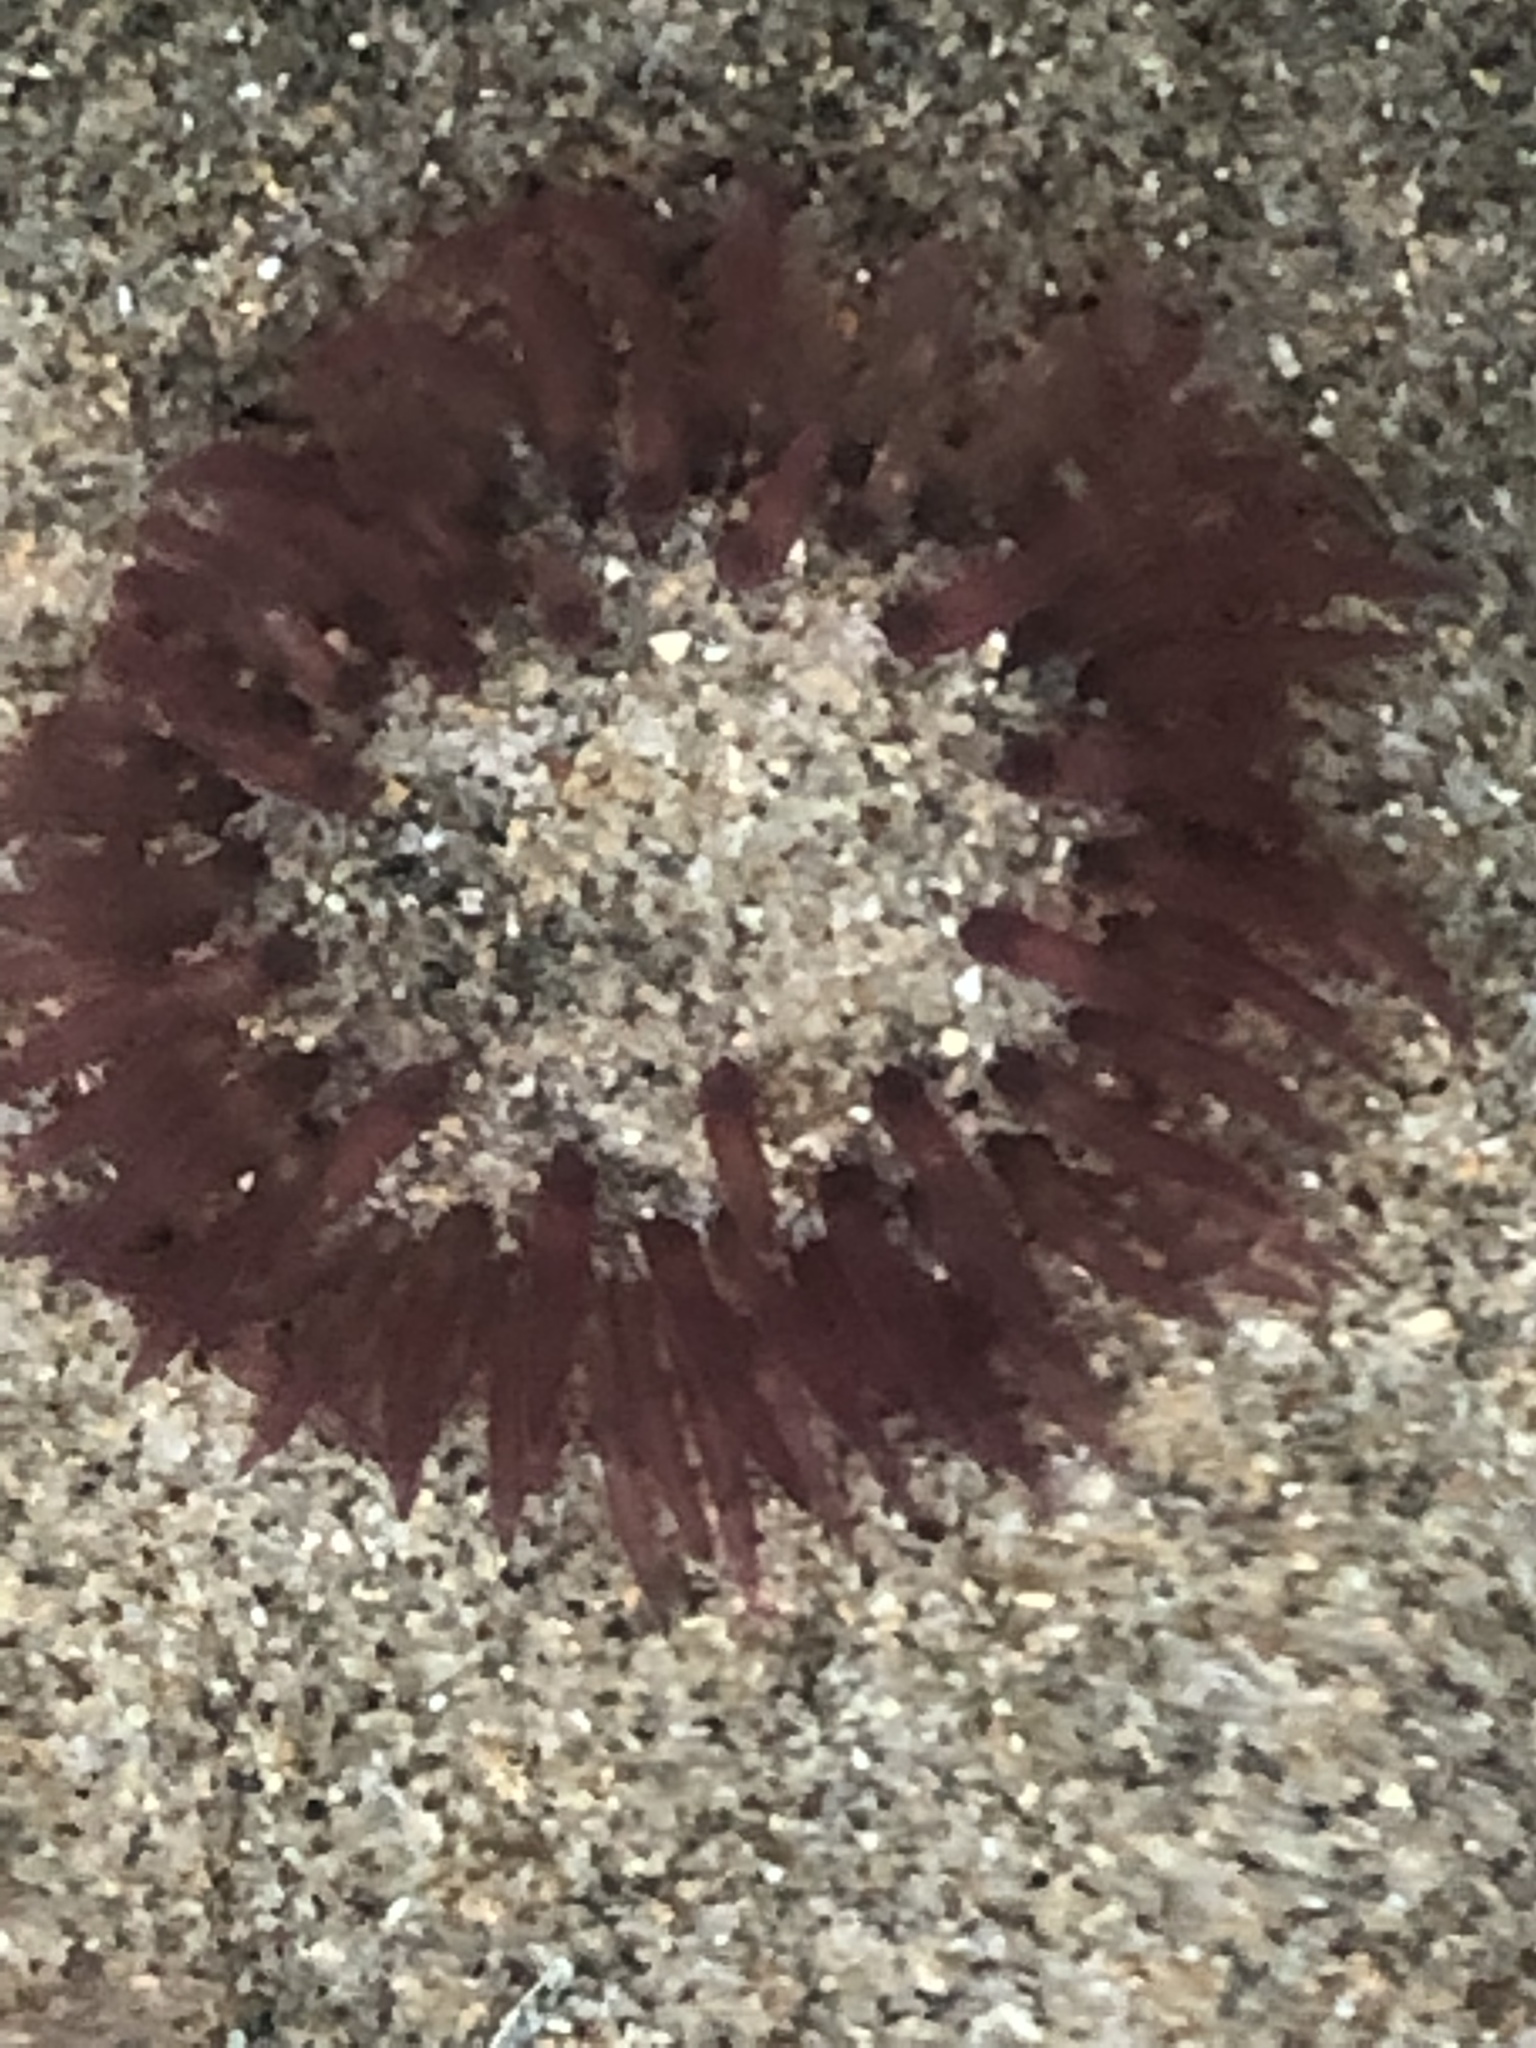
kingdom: Animalia
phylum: Cnidaria
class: Anthozoa
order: Actiniaria
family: Actiniidae
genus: Anthopleura
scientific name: Anthopleura artemisia
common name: Buried sea anemone
